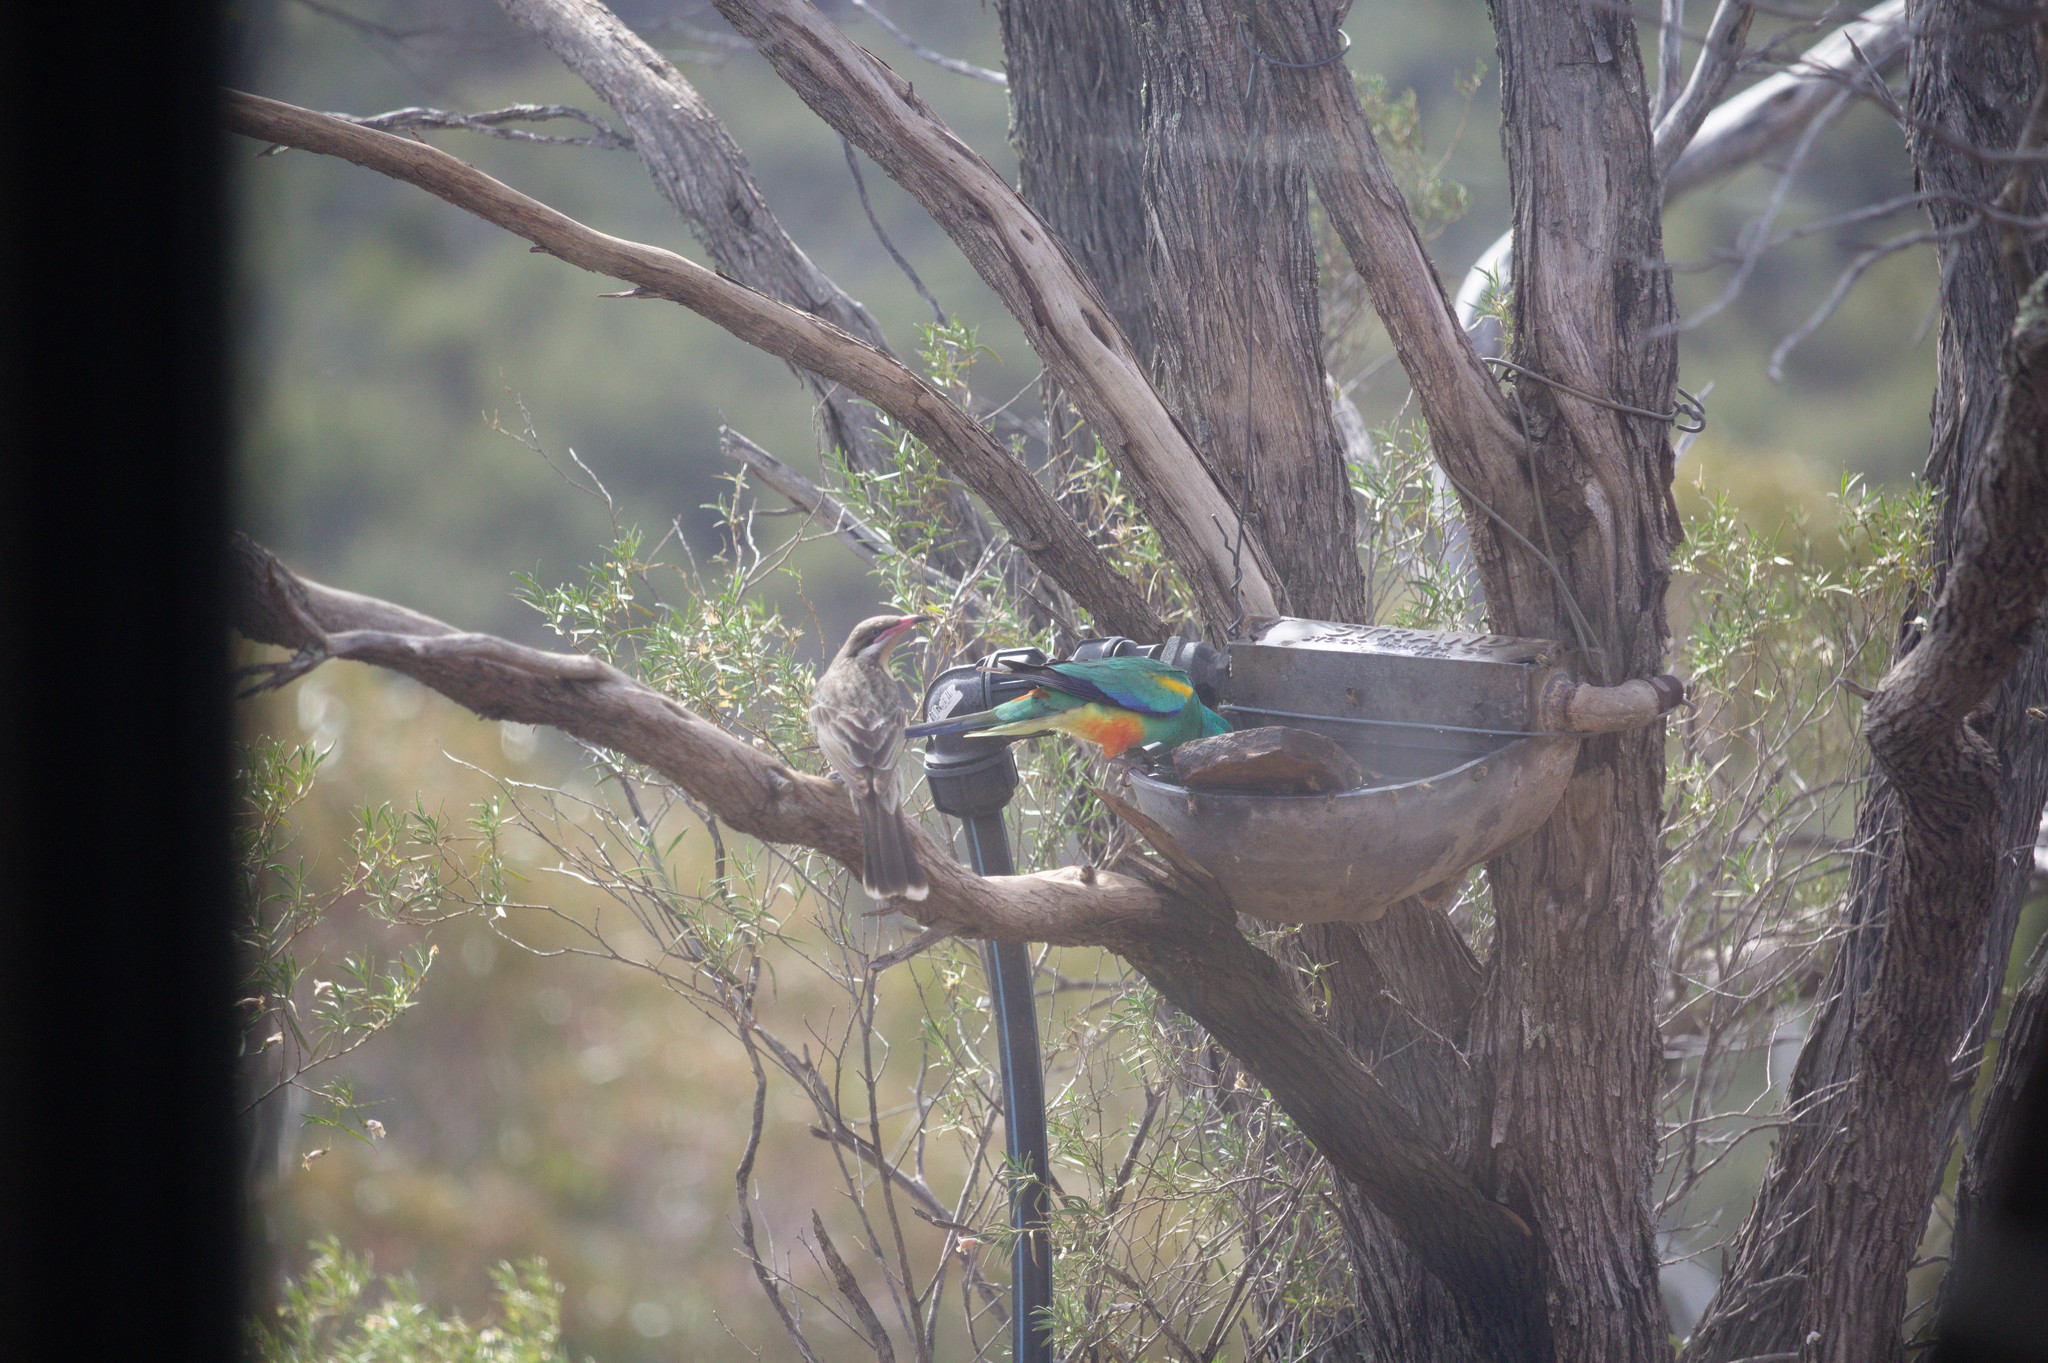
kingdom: Animalia
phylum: Chordata
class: Aves
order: Psittaciformes
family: Psittaculidae
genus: Psephotellus
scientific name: Psephotellus varius
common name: Mulga parrot
